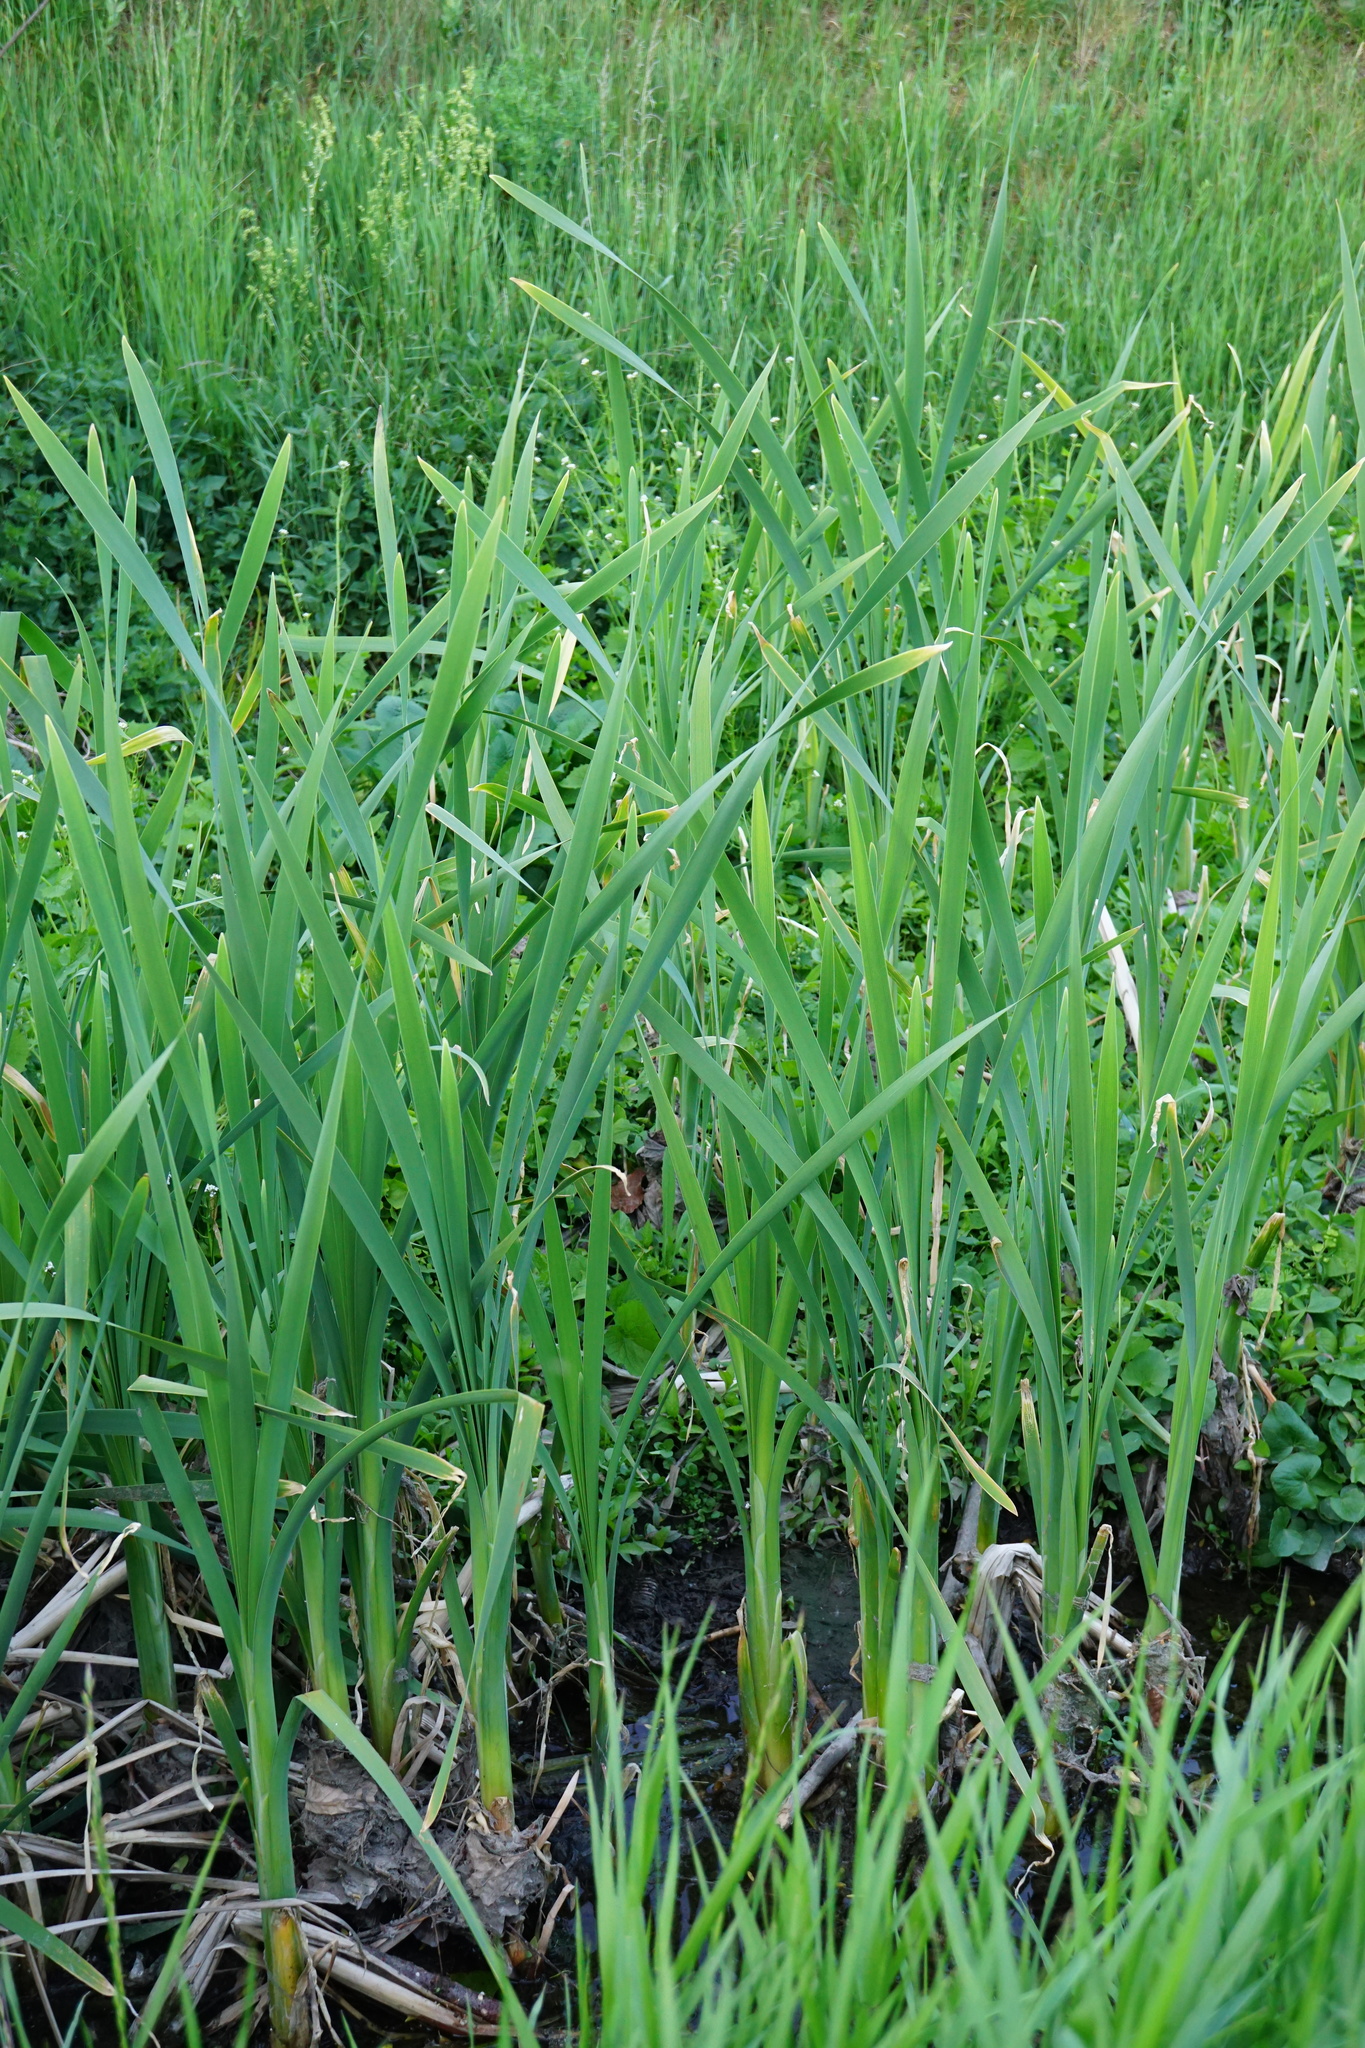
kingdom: Plantae
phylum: Tracheophyta
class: Liliopsida
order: Poales
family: Typhaceae
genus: Typha
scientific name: Typha latifolia
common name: Broadleaf cattail
